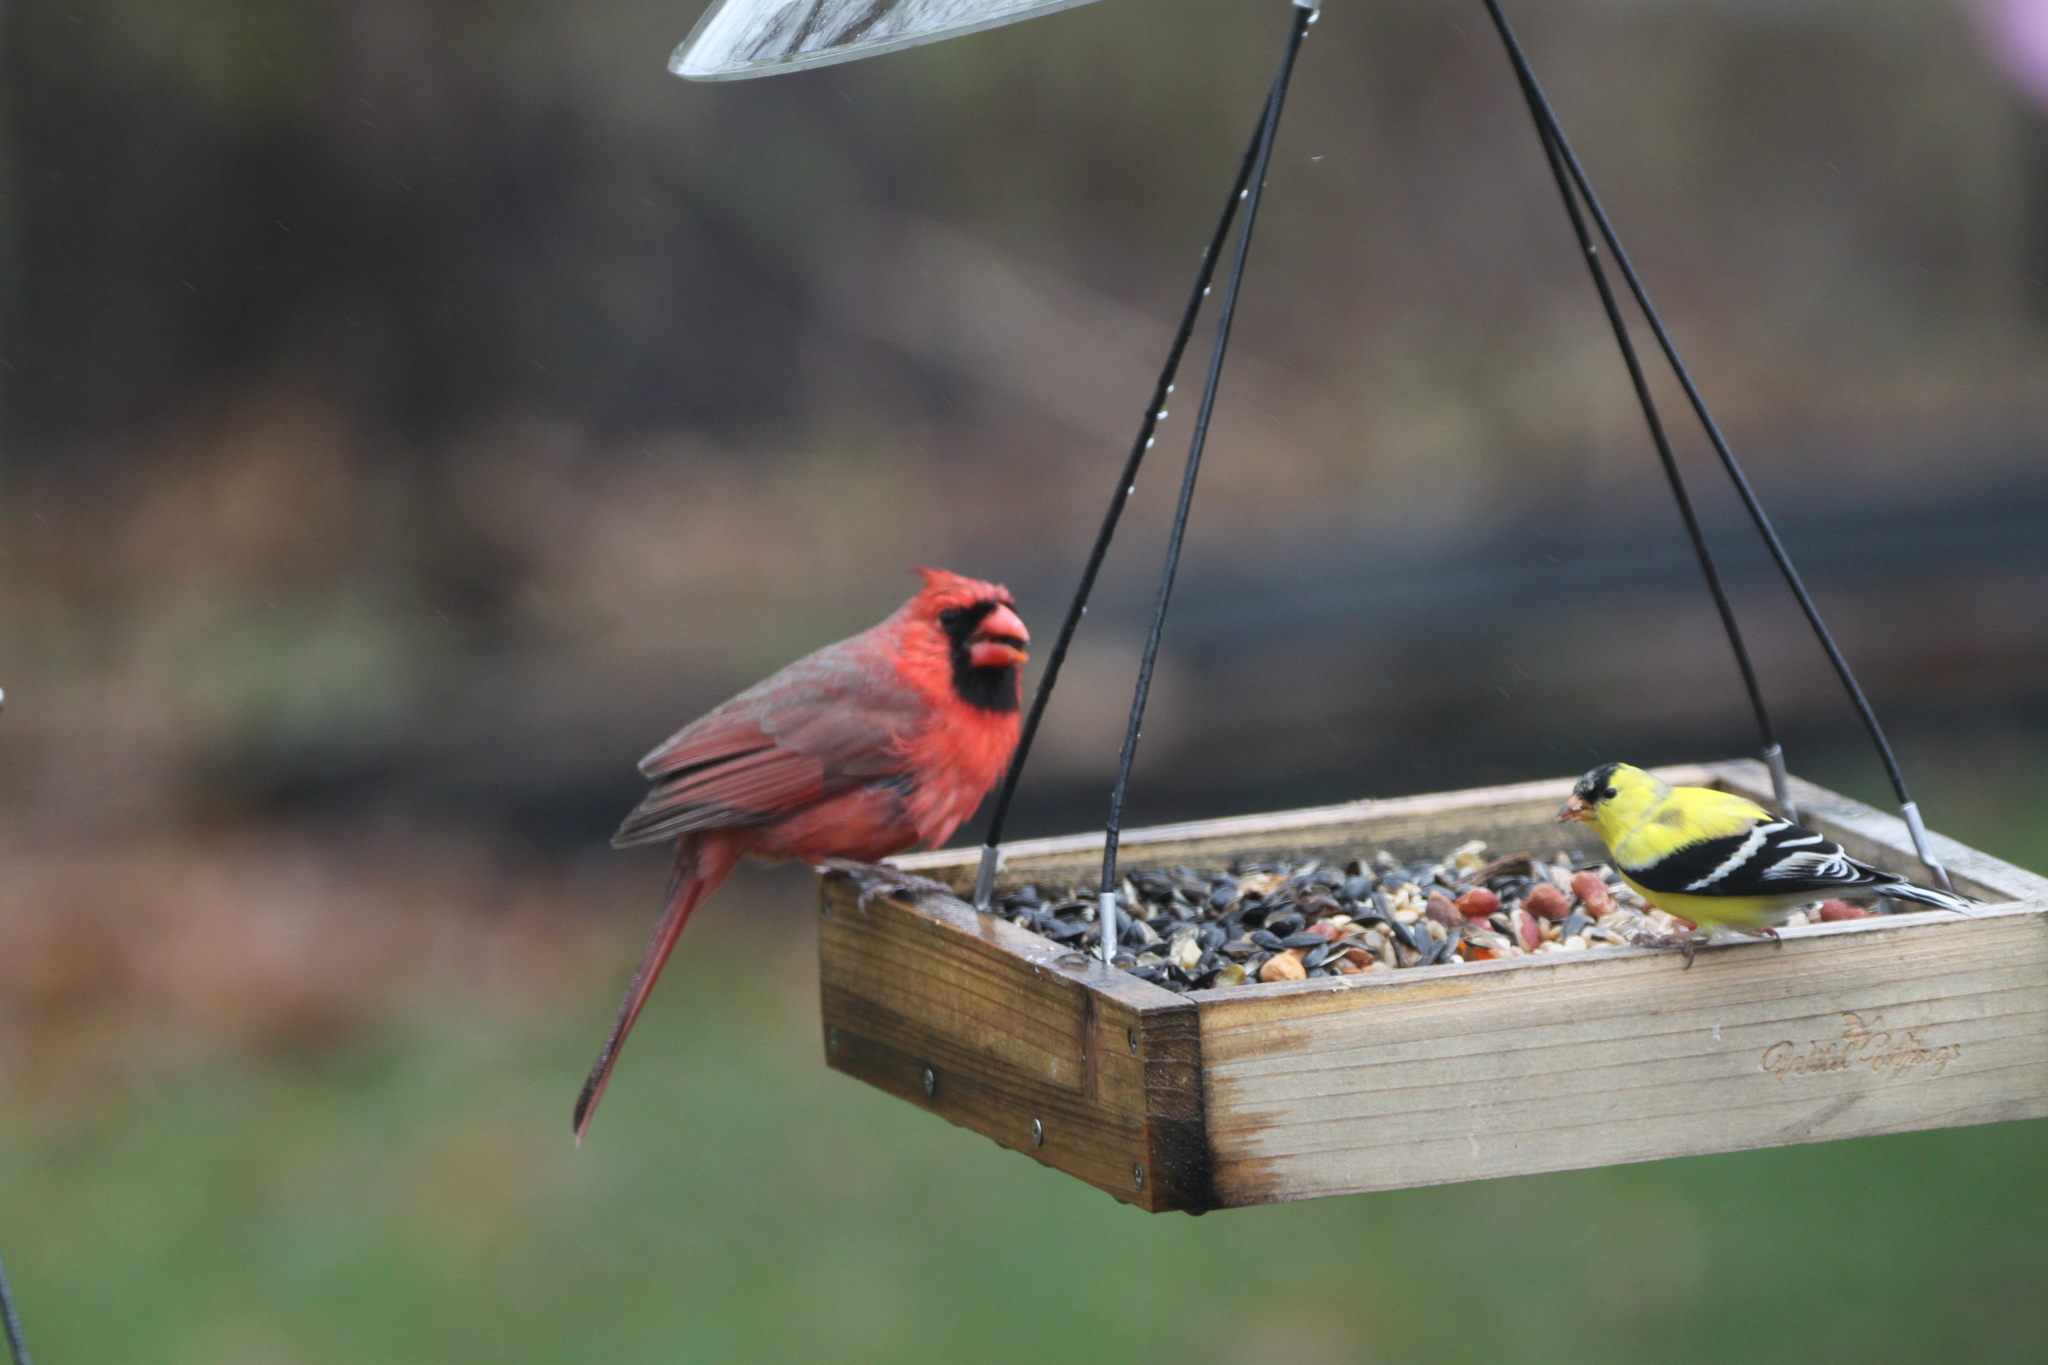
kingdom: Animalia
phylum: Chordata
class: Aves
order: Passeriformes
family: Fringillidae
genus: Spinus
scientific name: Spinus tristis
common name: American goldfinch
